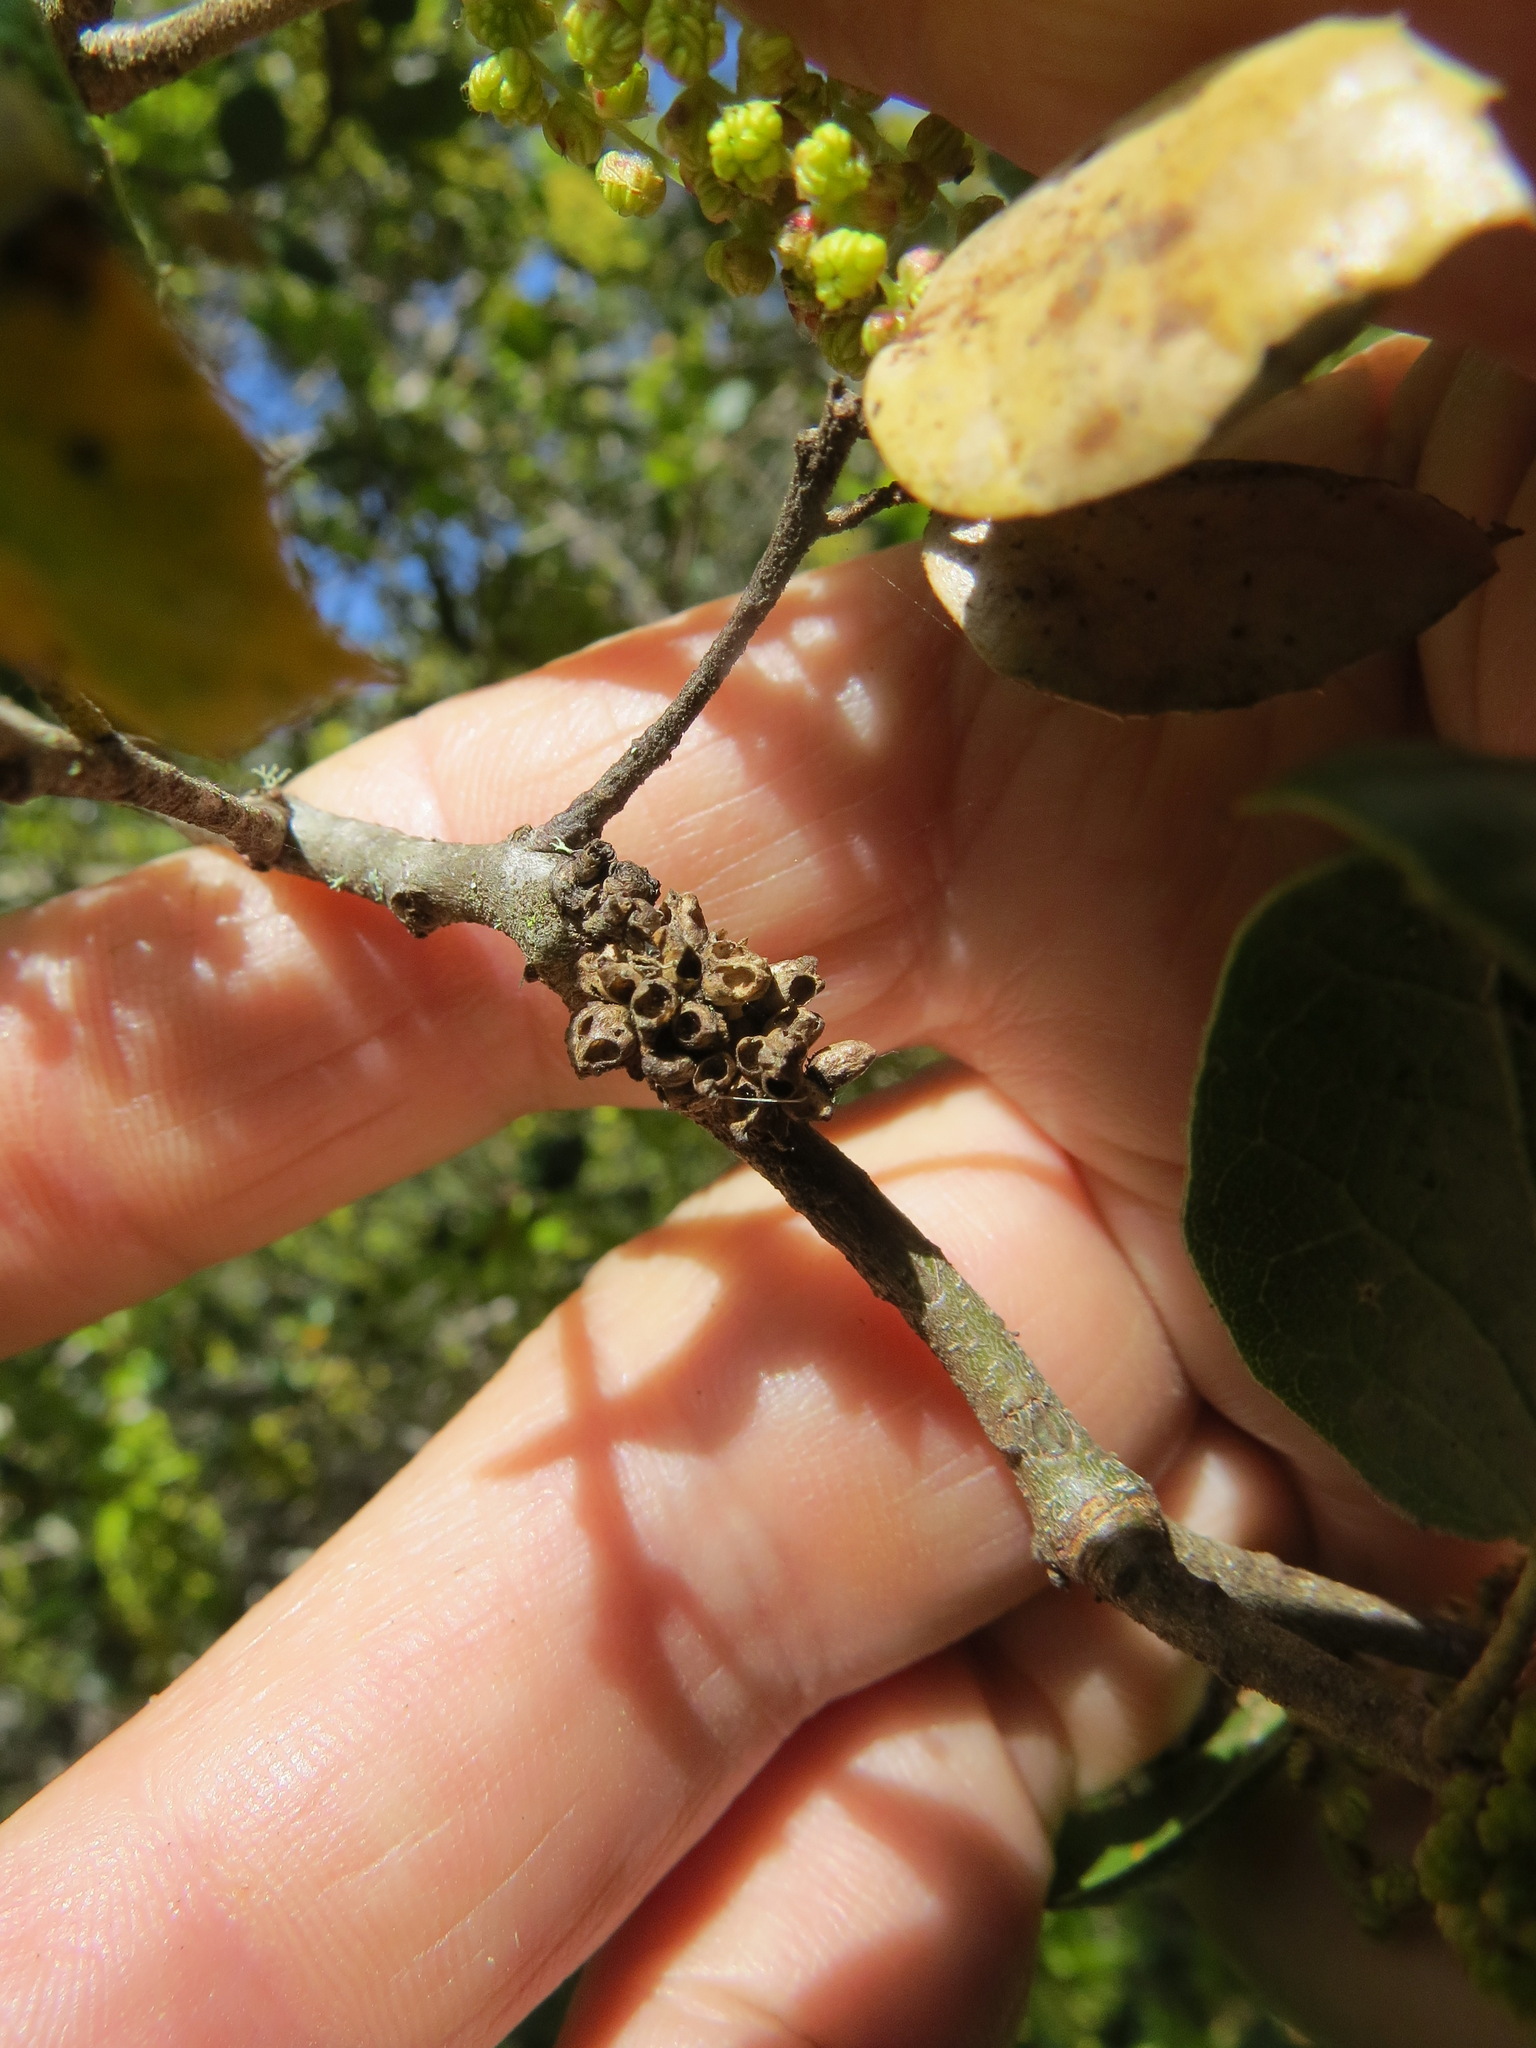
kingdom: Animalia
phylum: Arthropoda
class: Insecta
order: Hymenoptera
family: Cynipidae
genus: Callirhytis
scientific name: Callirhytis
